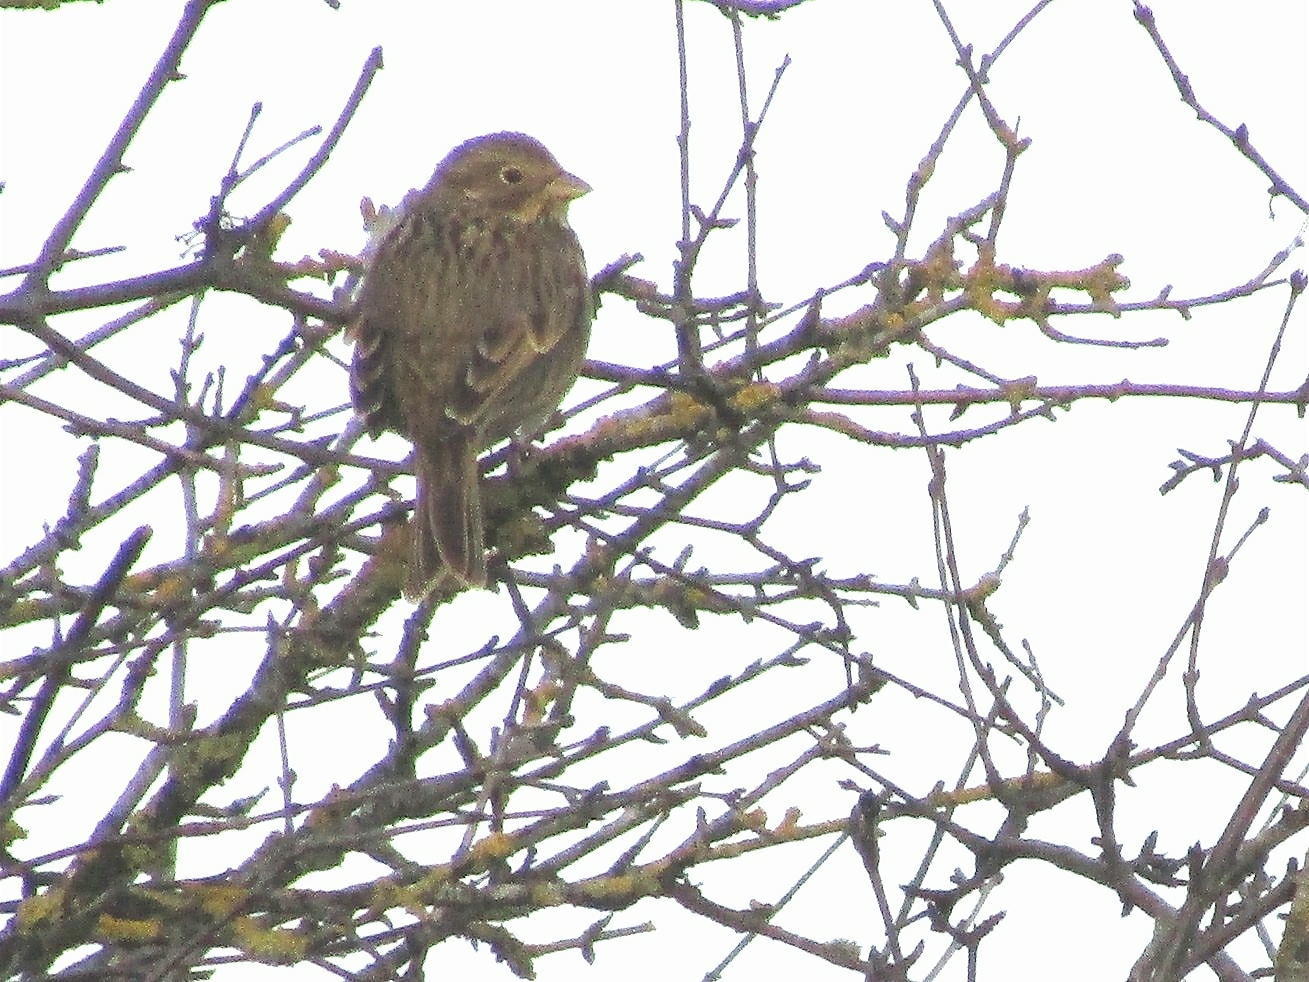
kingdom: Animalia
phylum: Chordata
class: Aves
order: Passeriformes
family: Emberizidae
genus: Emberiza
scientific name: Emberiza calandra
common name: Corn bunting
